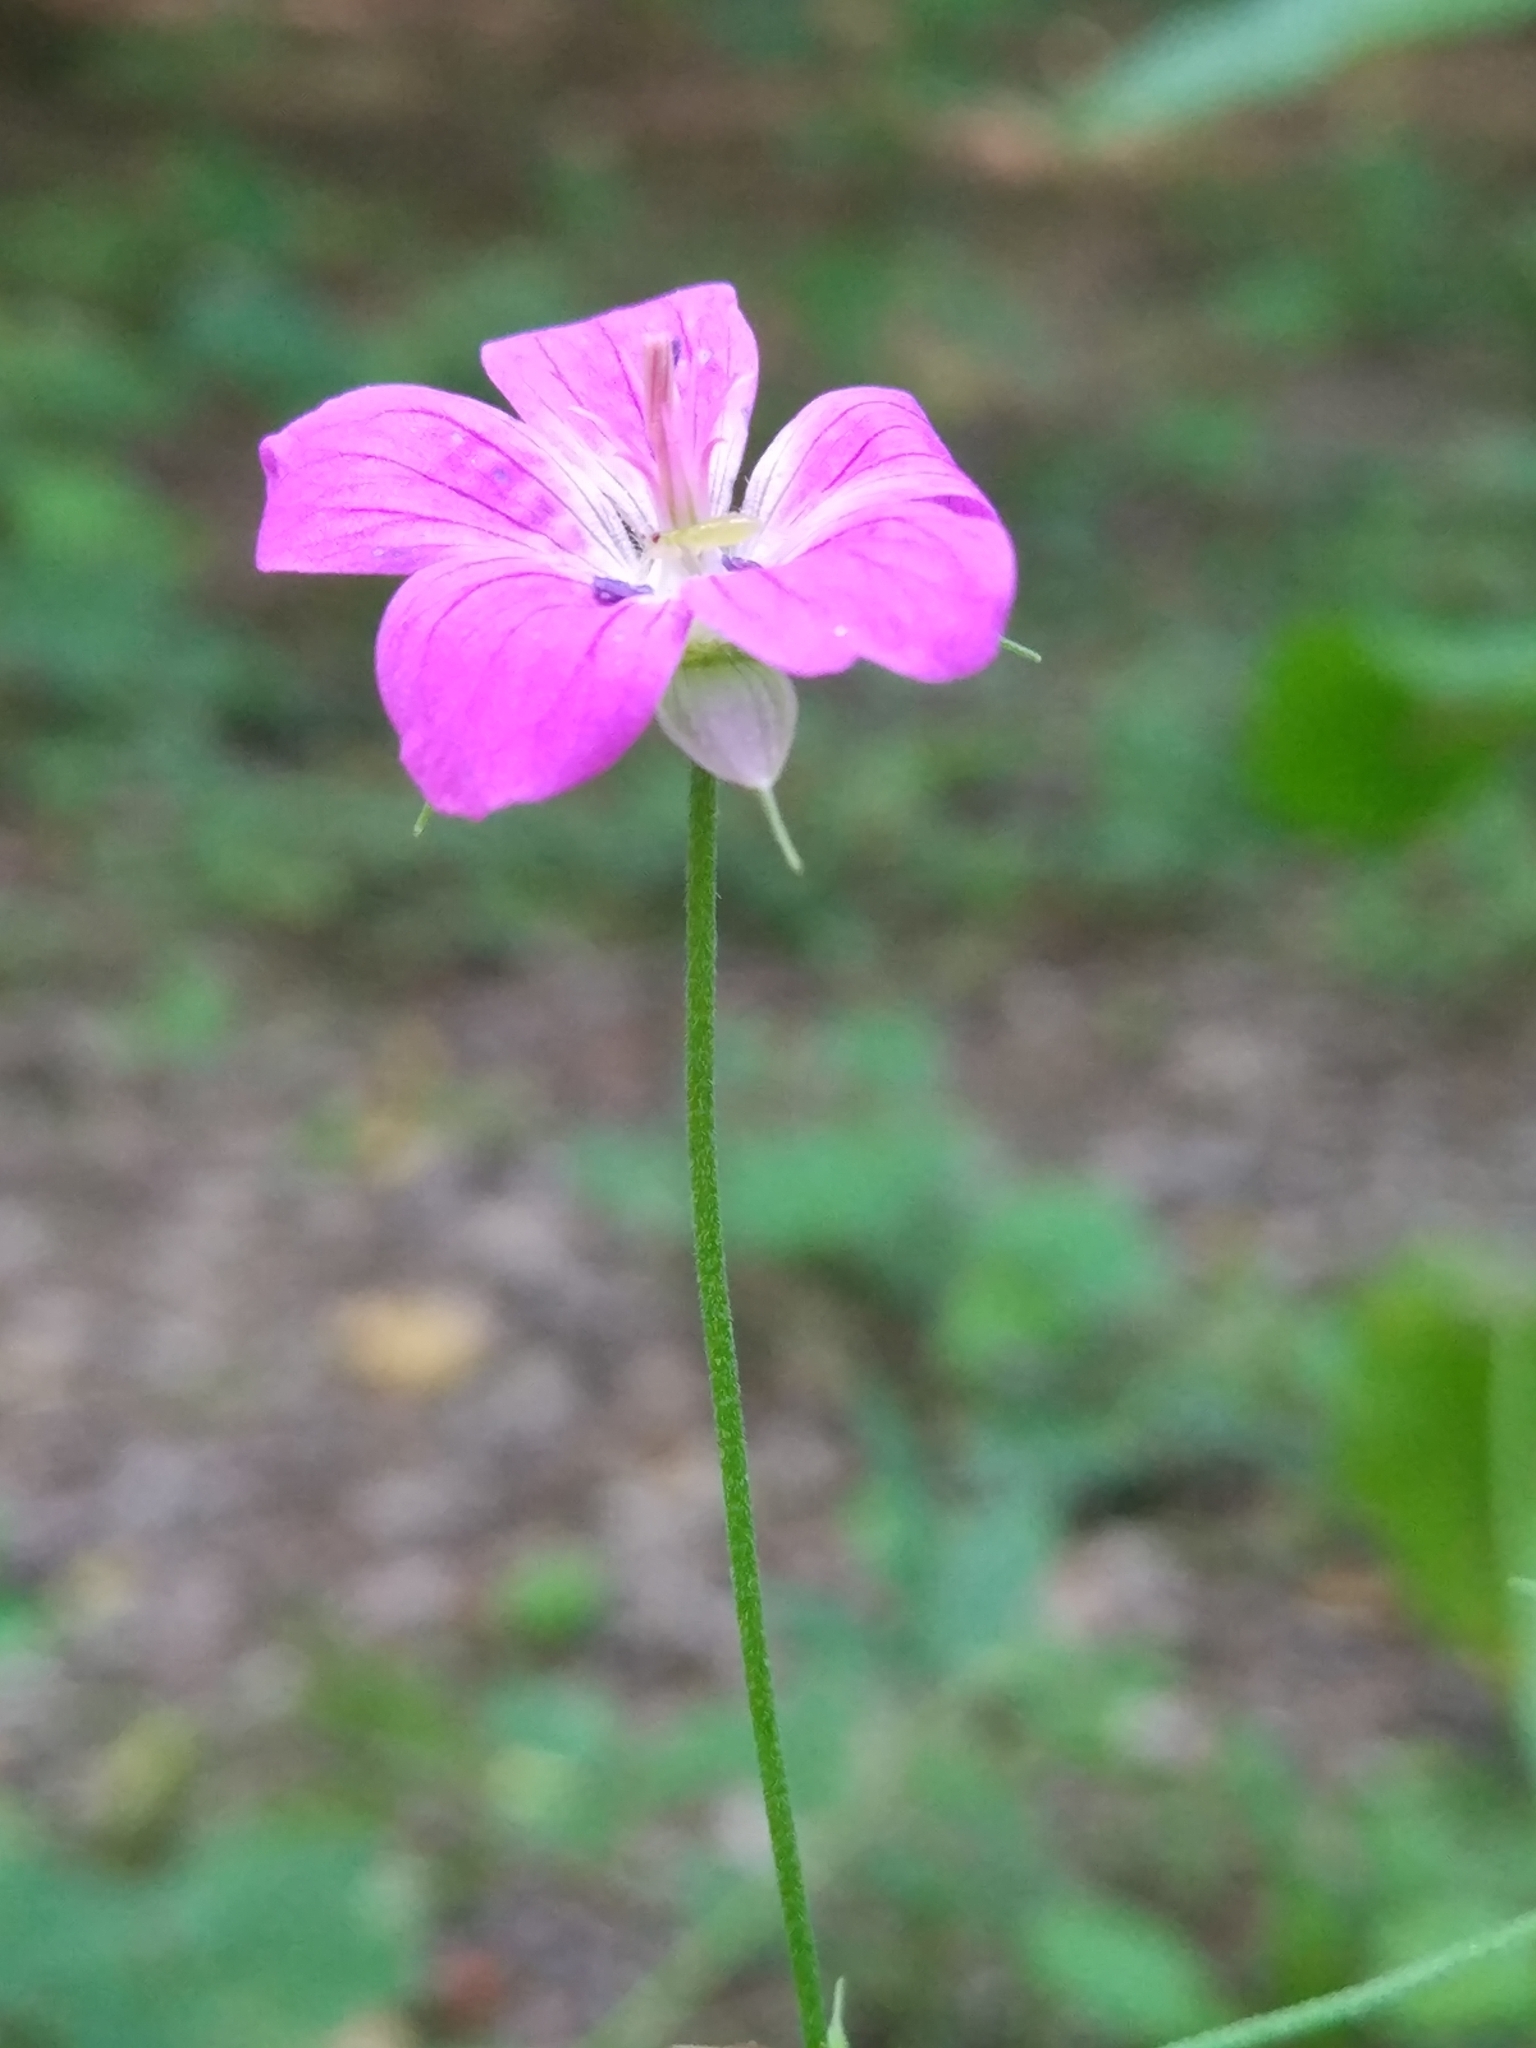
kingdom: Plantae
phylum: Tracheophyta
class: Magnoliopsida
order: Geraniales
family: Geraniaceae
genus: Geranium
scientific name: Geranium palustre
